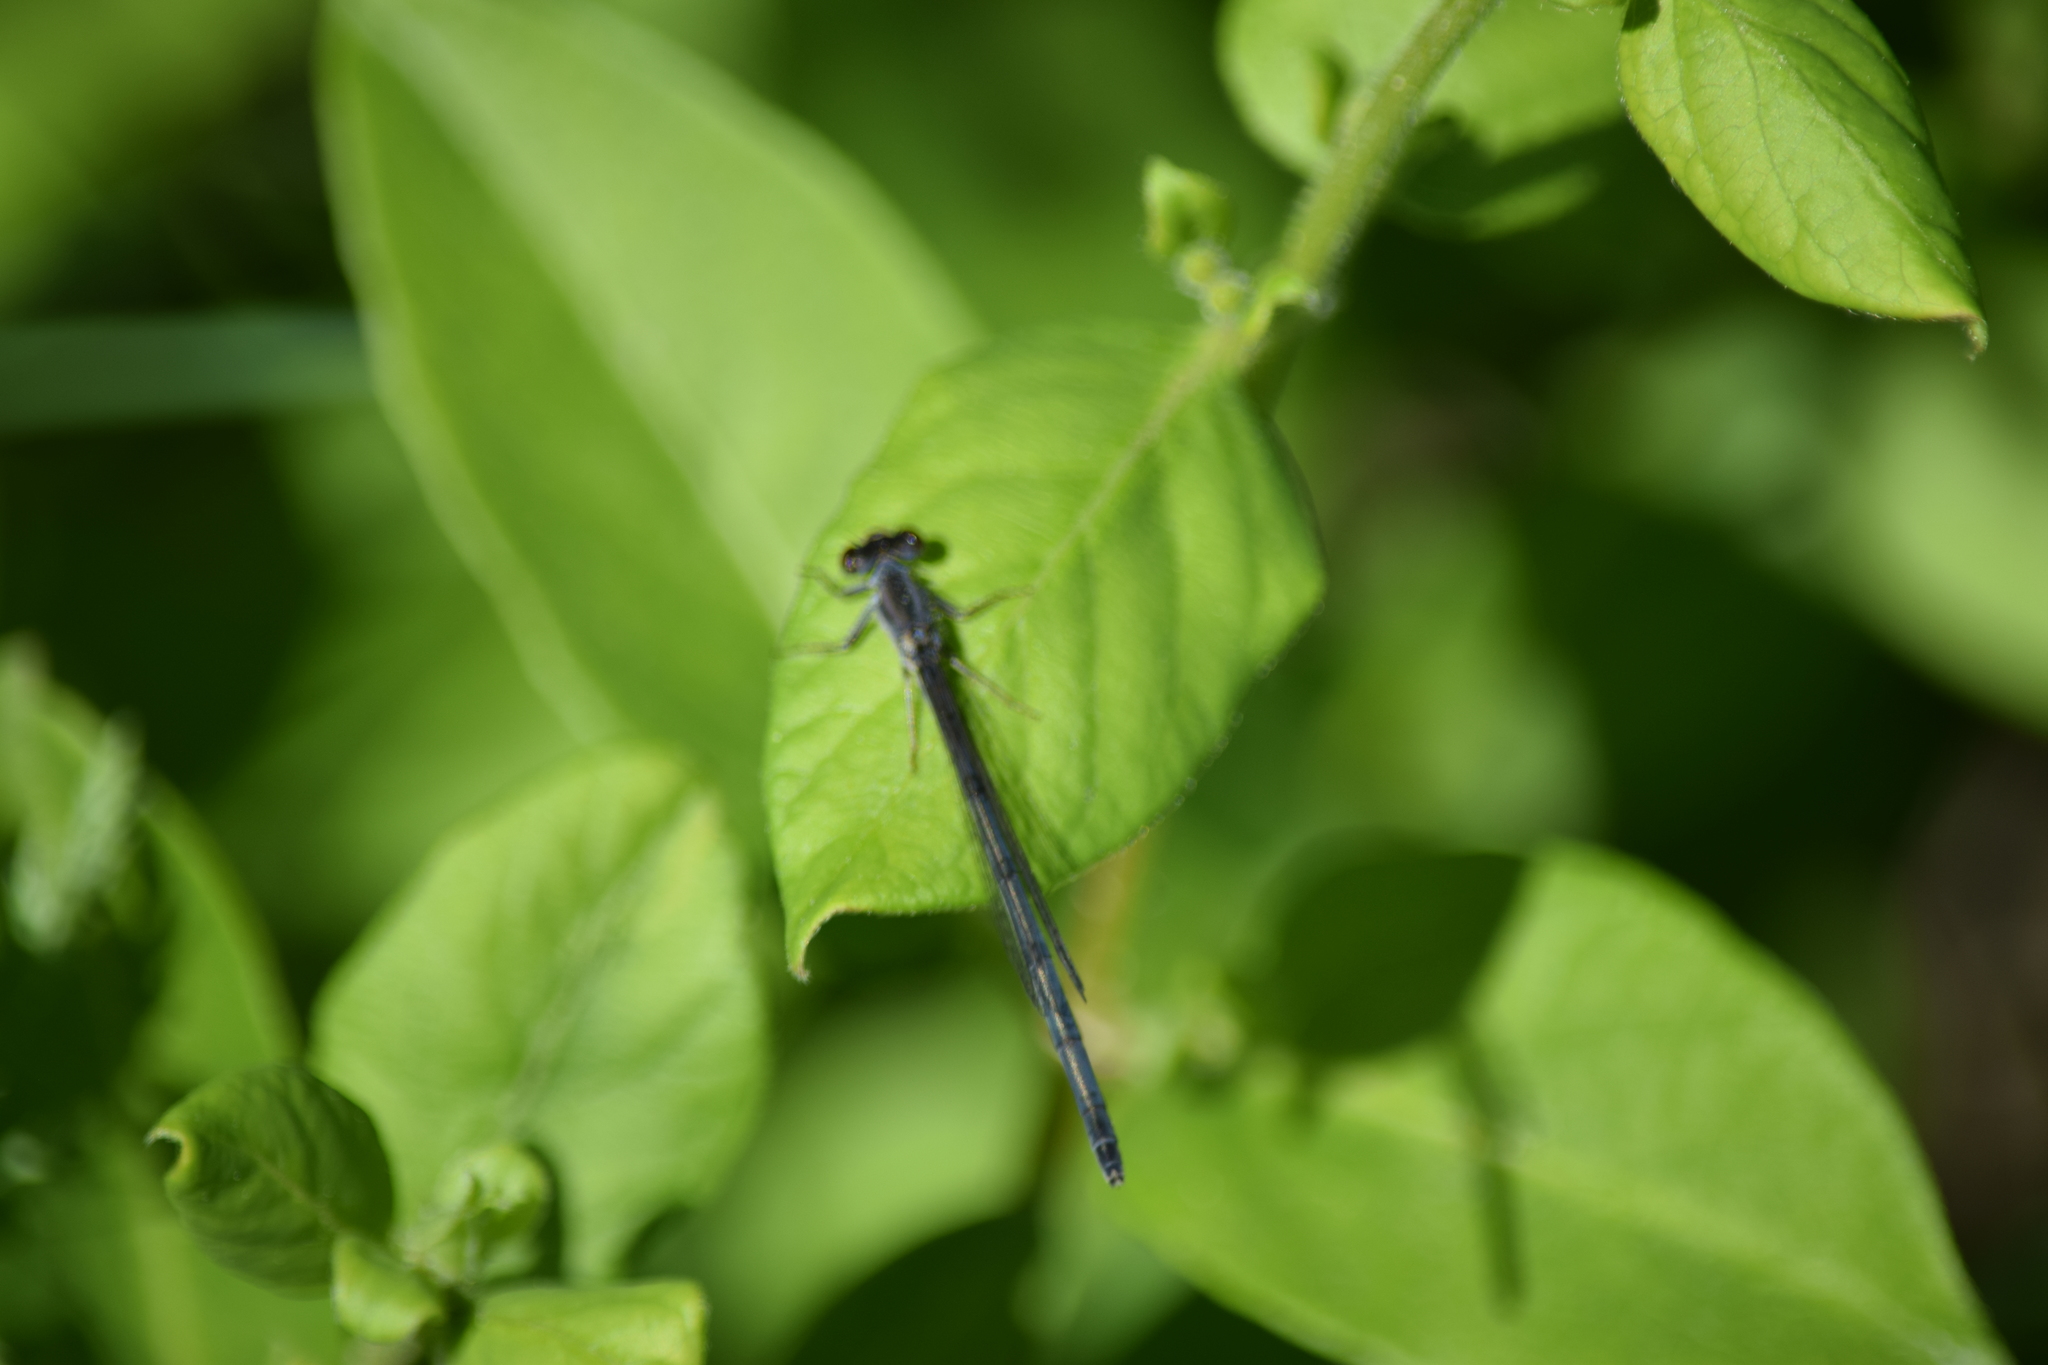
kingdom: Animalia
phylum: Arthropoda
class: Insecta
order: Odonata
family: Coenagrionidae
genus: Ischnura
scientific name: Ischnura posita
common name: Fragile forktail
